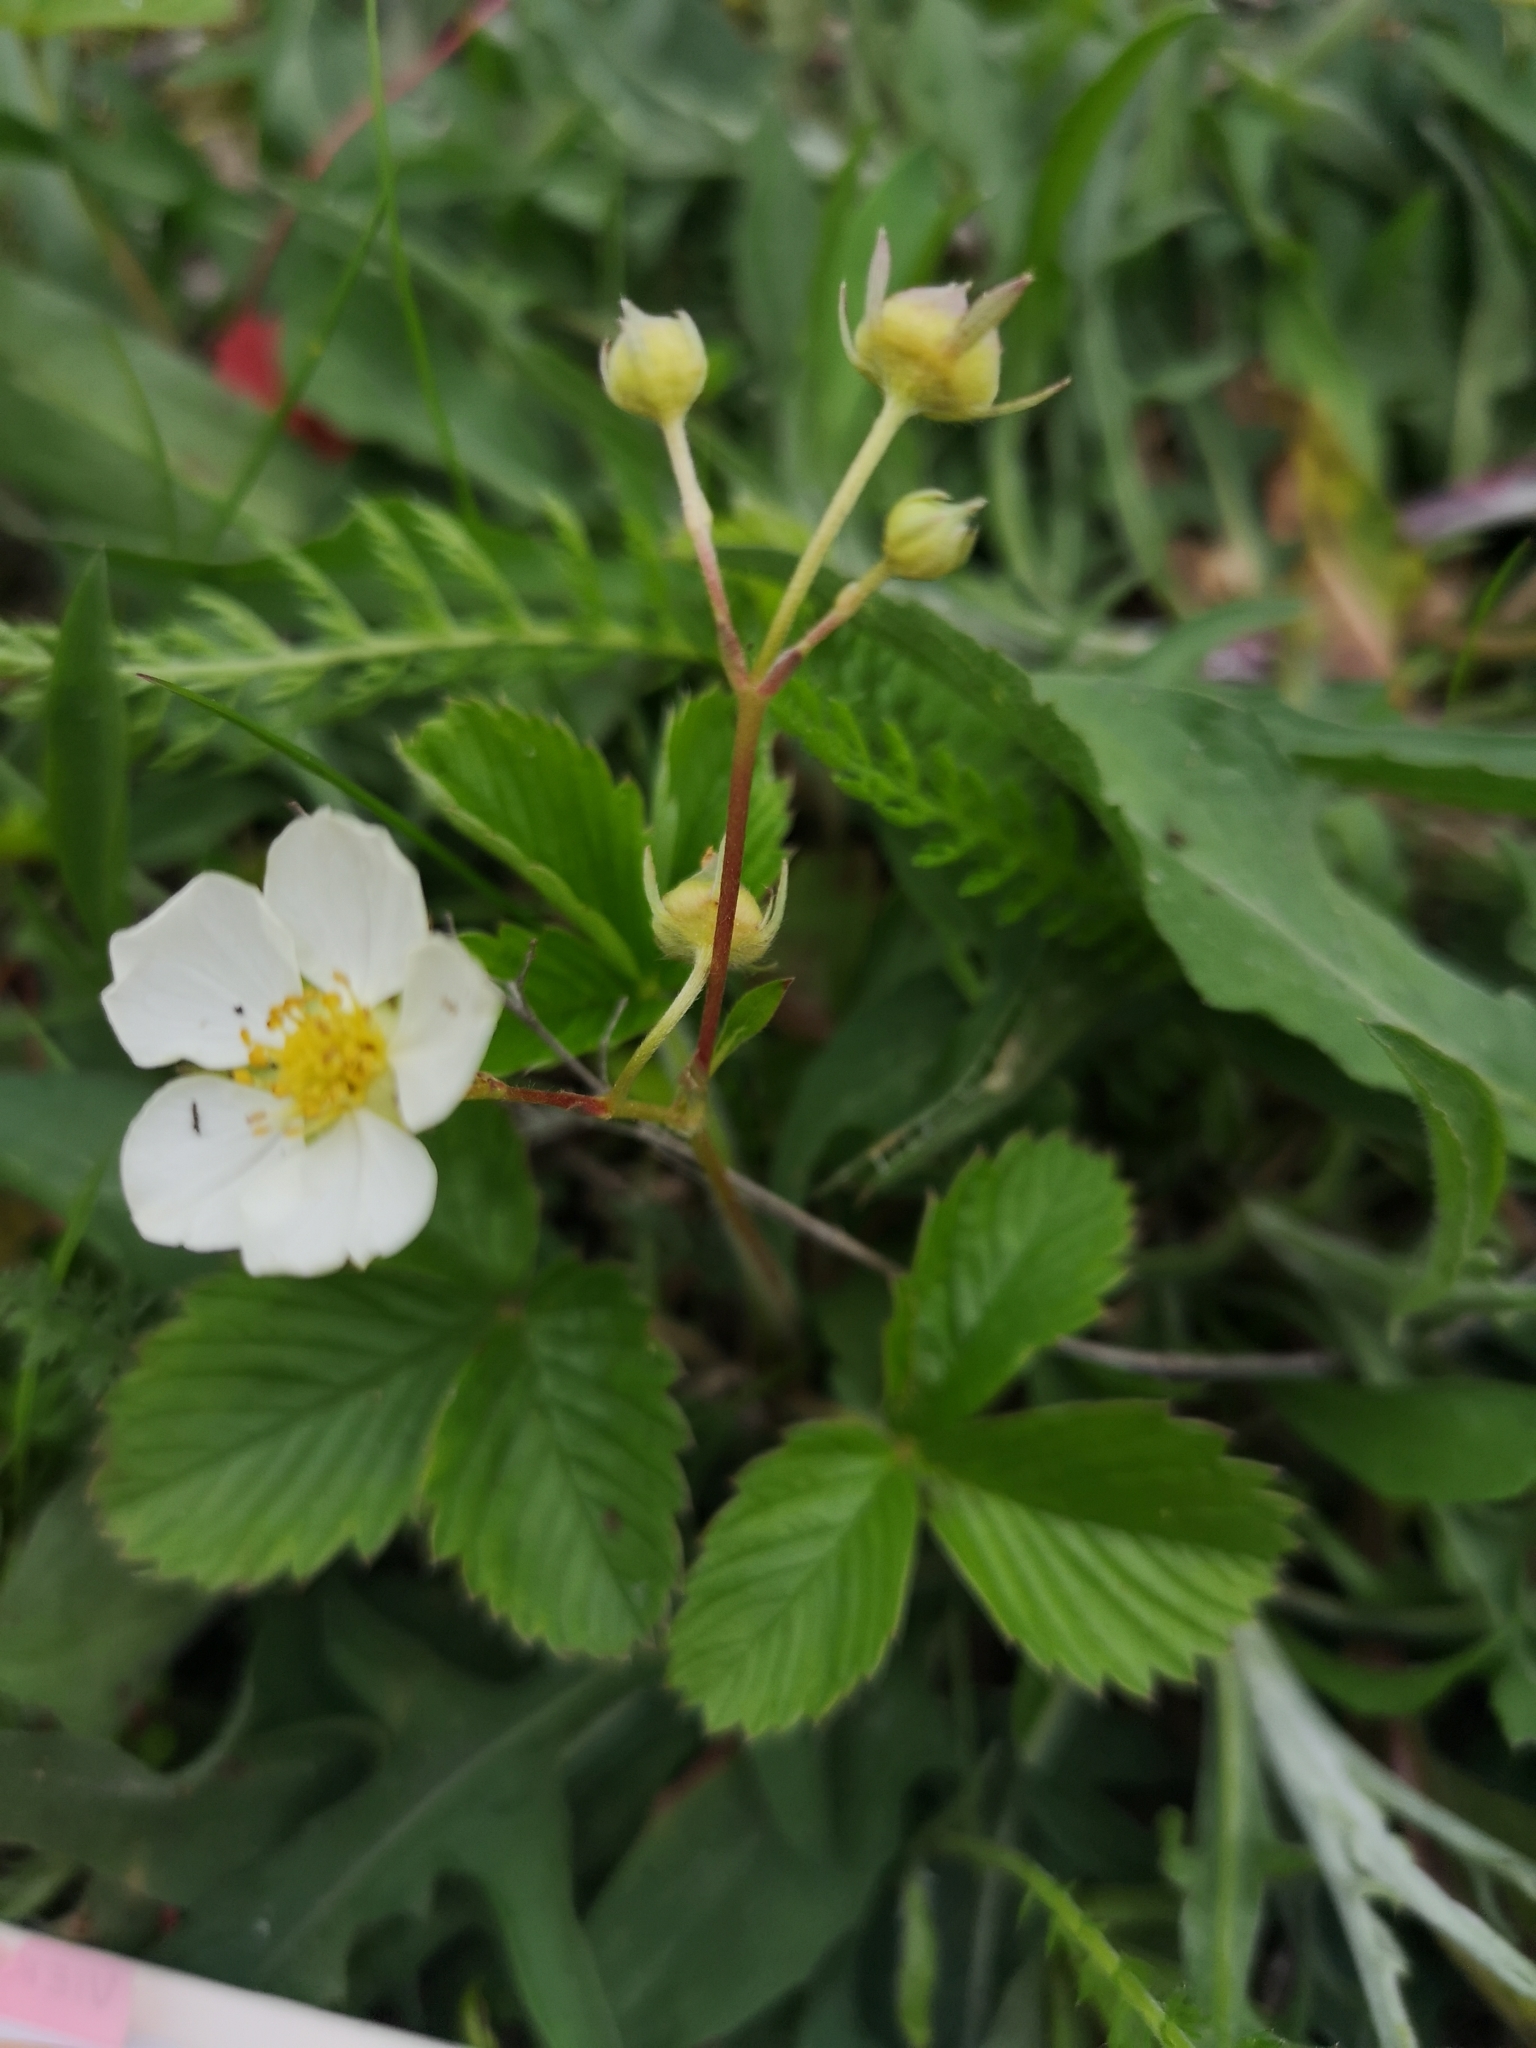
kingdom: Plantae
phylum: Tracheophyta
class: Magnoliopsida
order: Rosales
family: Rosaceae
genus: Fragaria
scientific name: Fragaria viridis
